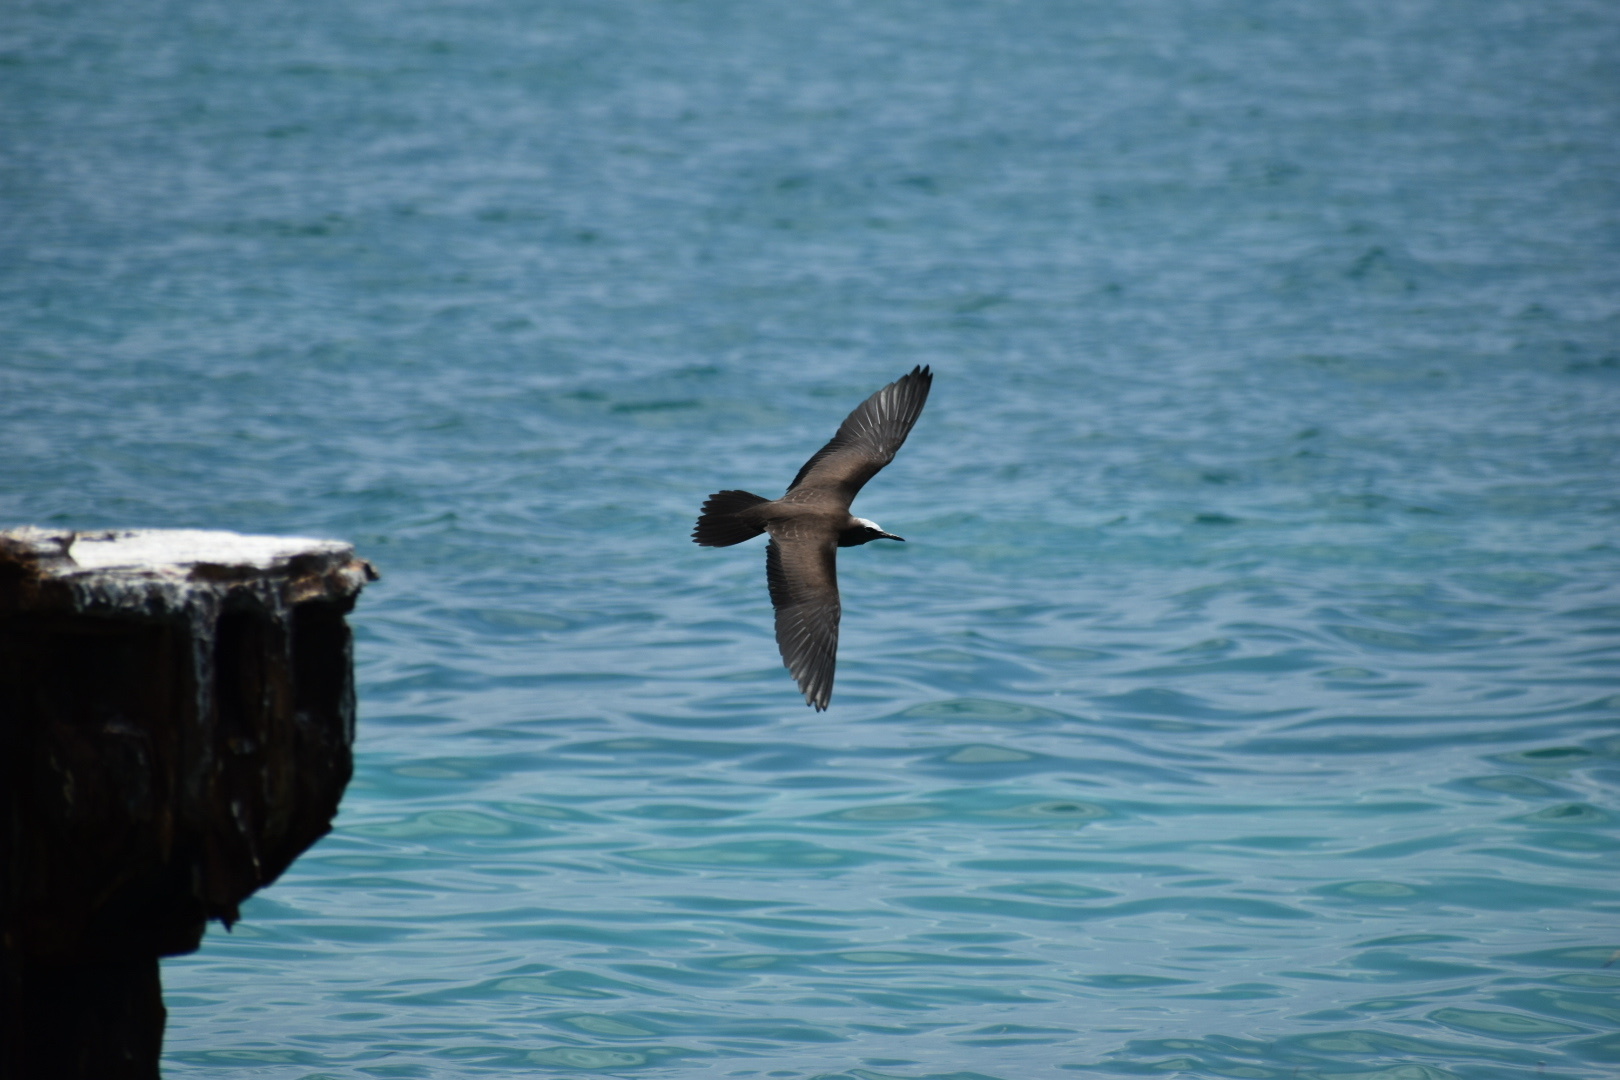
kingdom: Animalia
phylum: Chordata
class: Aves
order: Charadriiformes
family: Laridae
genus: Anous
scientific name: Anous stolidus
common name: Brown noddy
